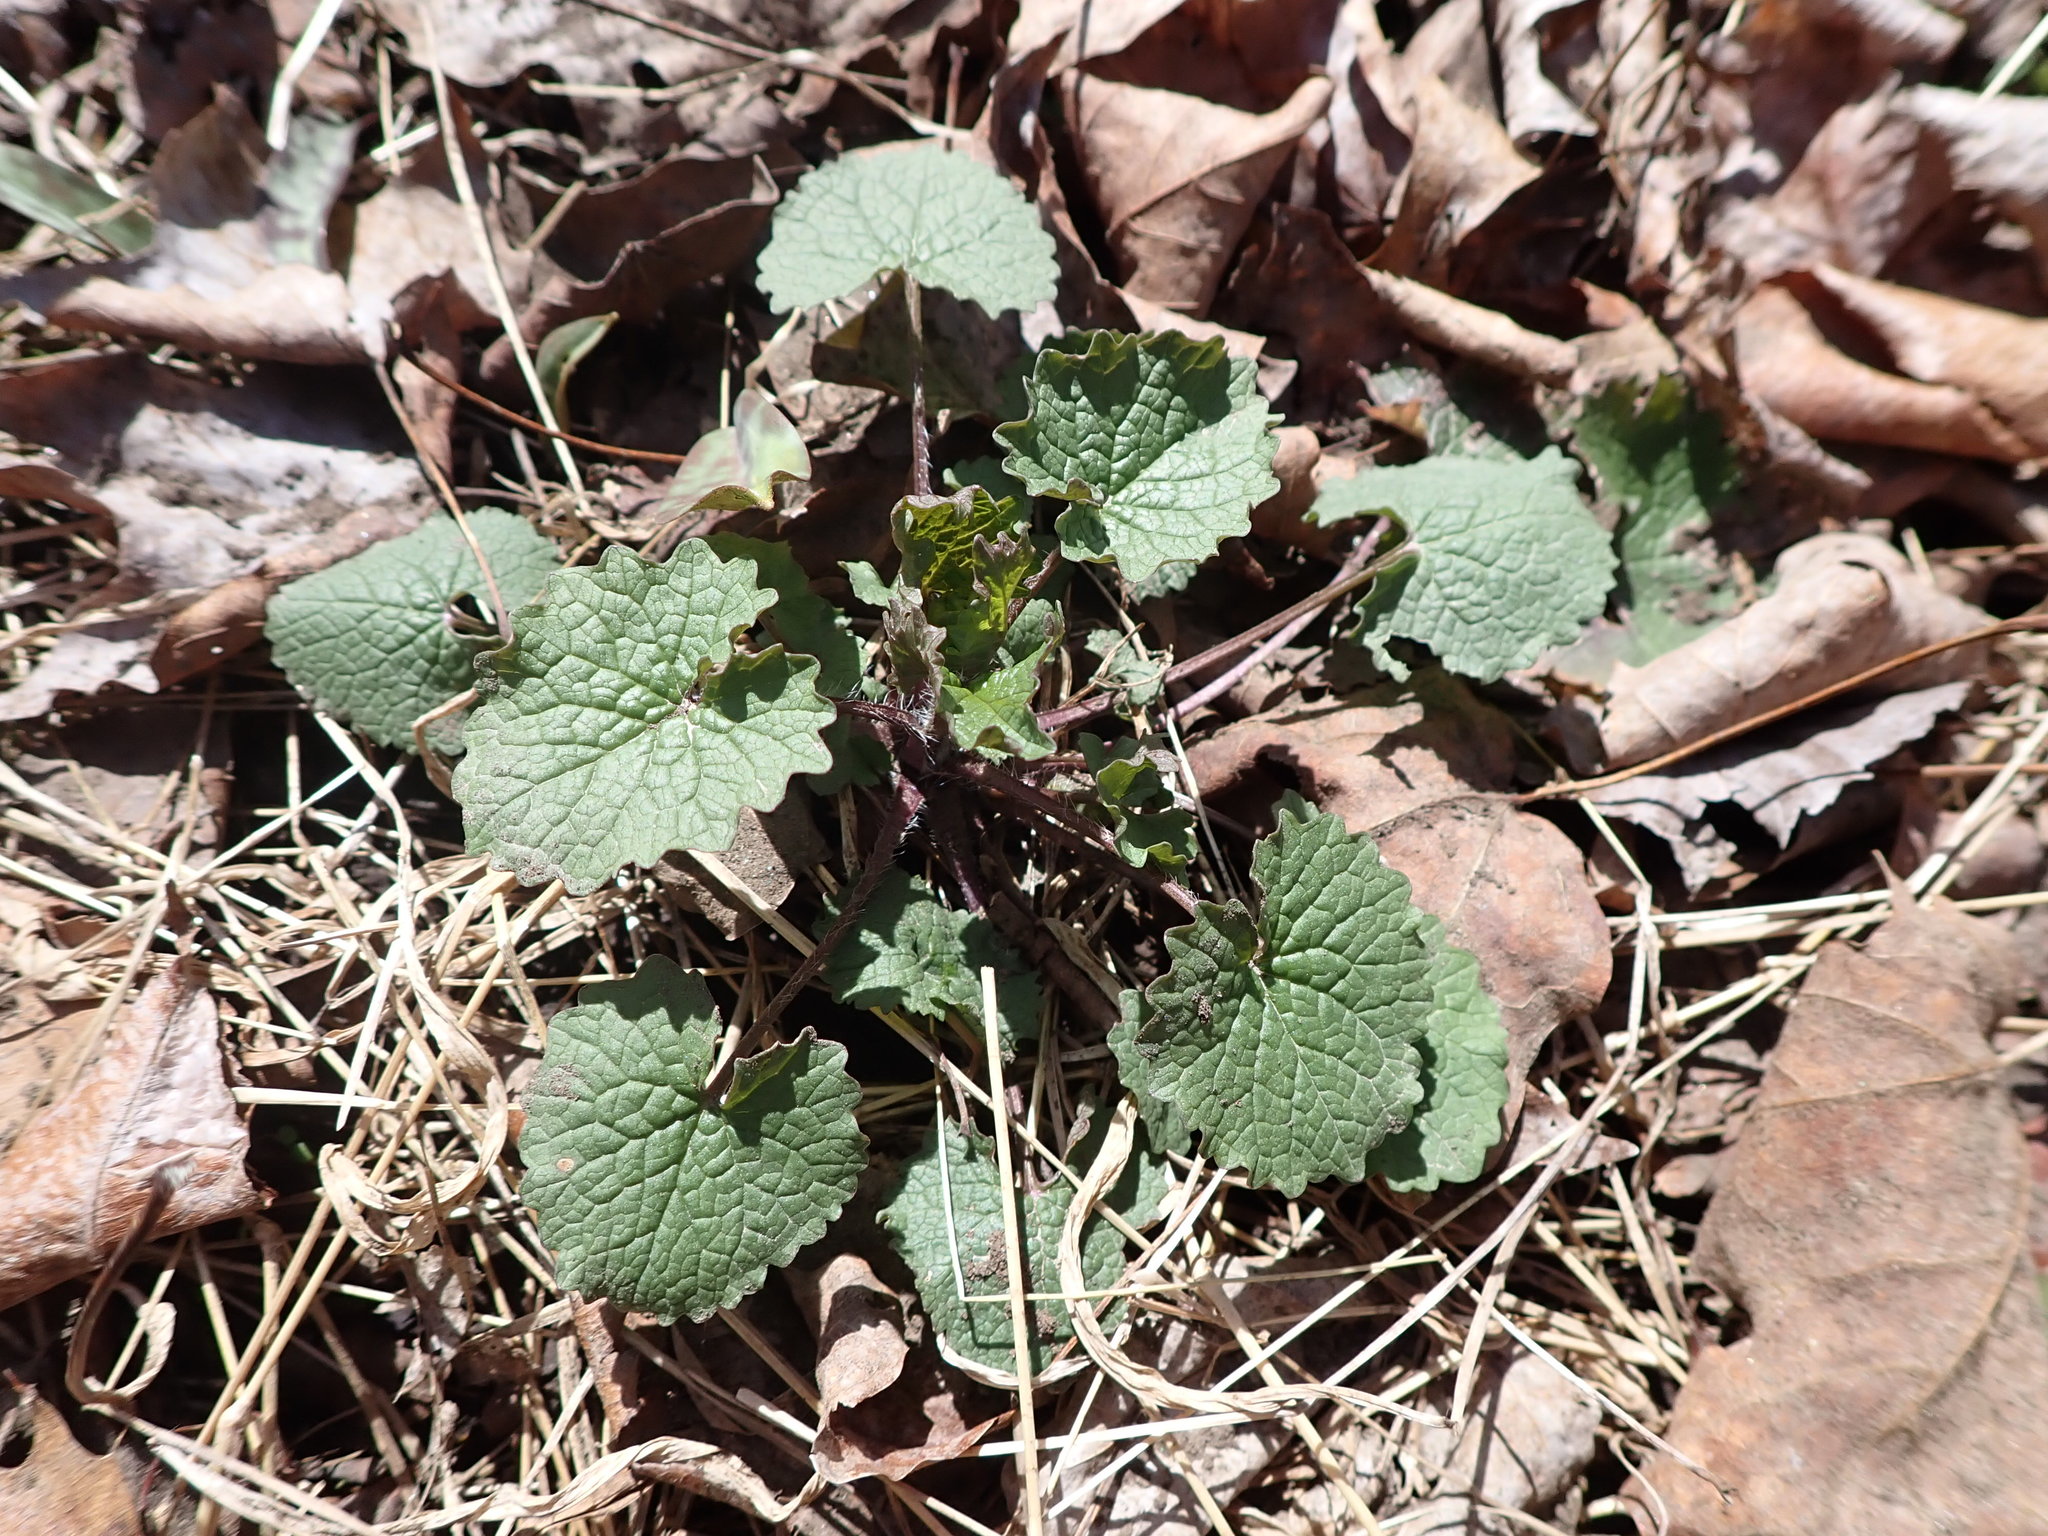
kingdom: Plantae
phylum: Tracheophyta
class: Magnoliopsida
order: Brassicales
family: Brassicaceae
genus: Alliaria
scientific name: Alliaria petiolata
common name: Garlic mustard
